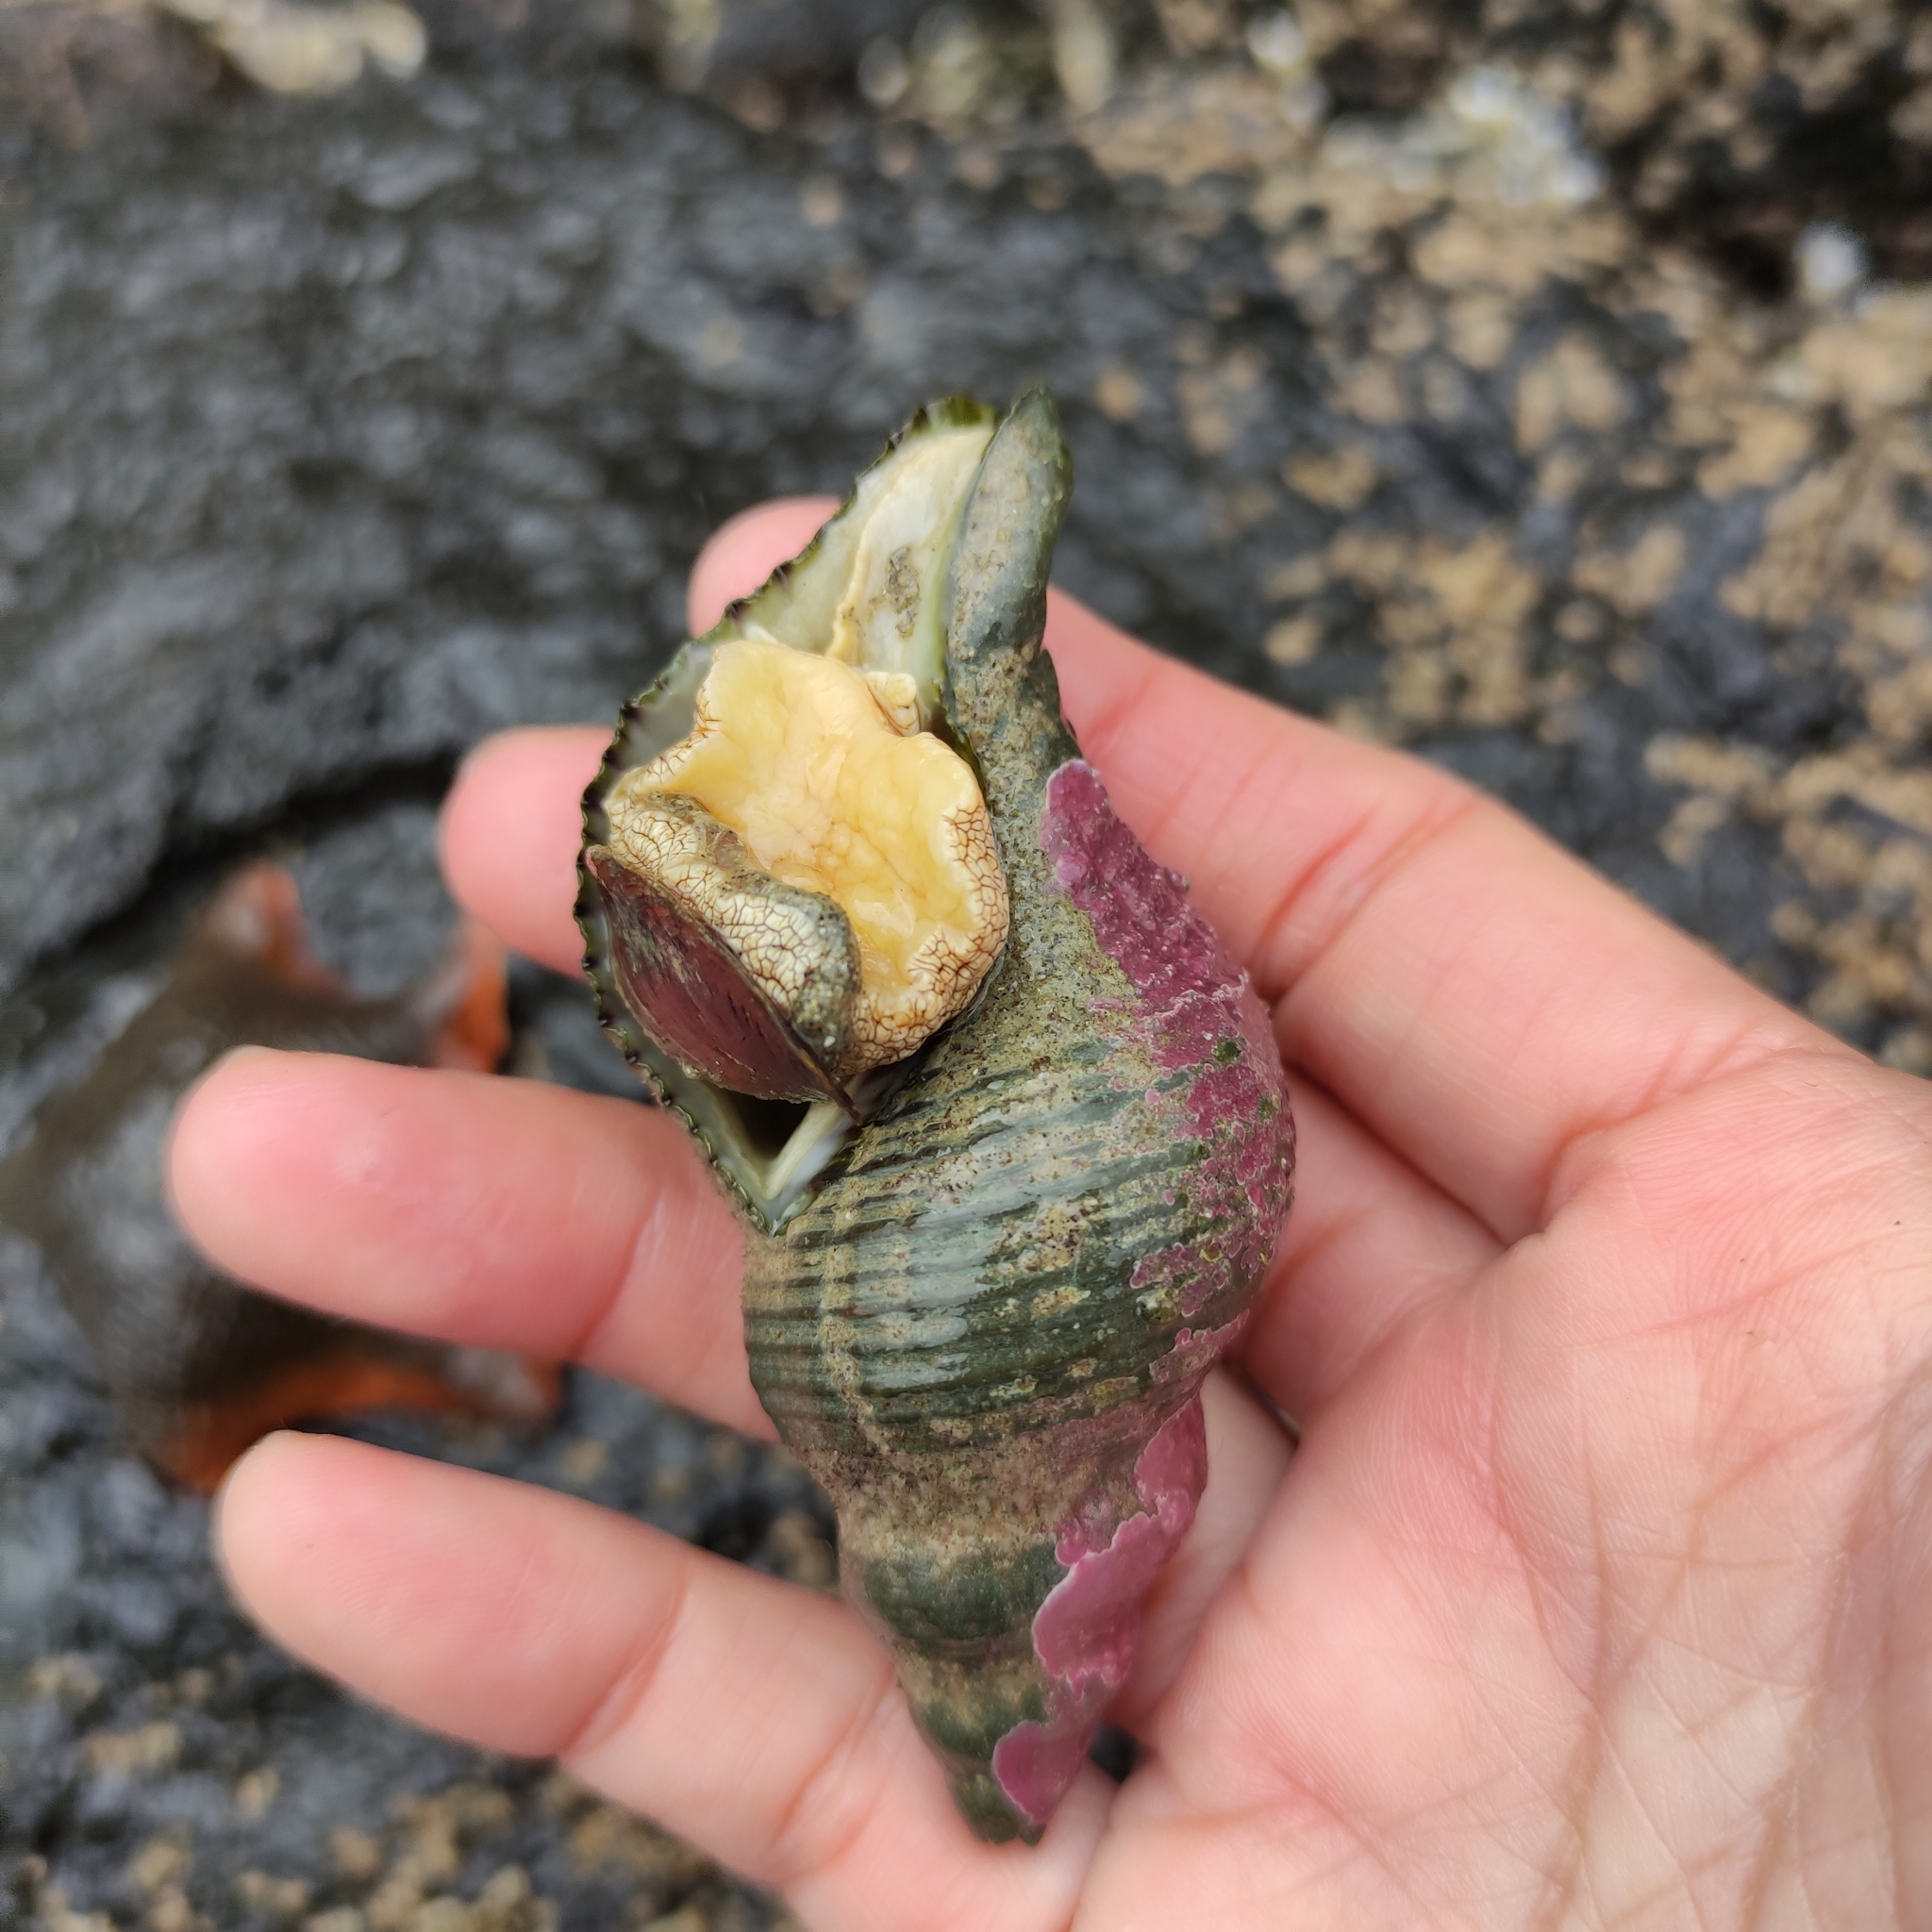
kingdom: Animalia
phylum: Mollusca
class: Gastropoda
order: Neogastropoda
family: Austrosiphonidae
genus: Penion
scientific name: Penion sulcatus
